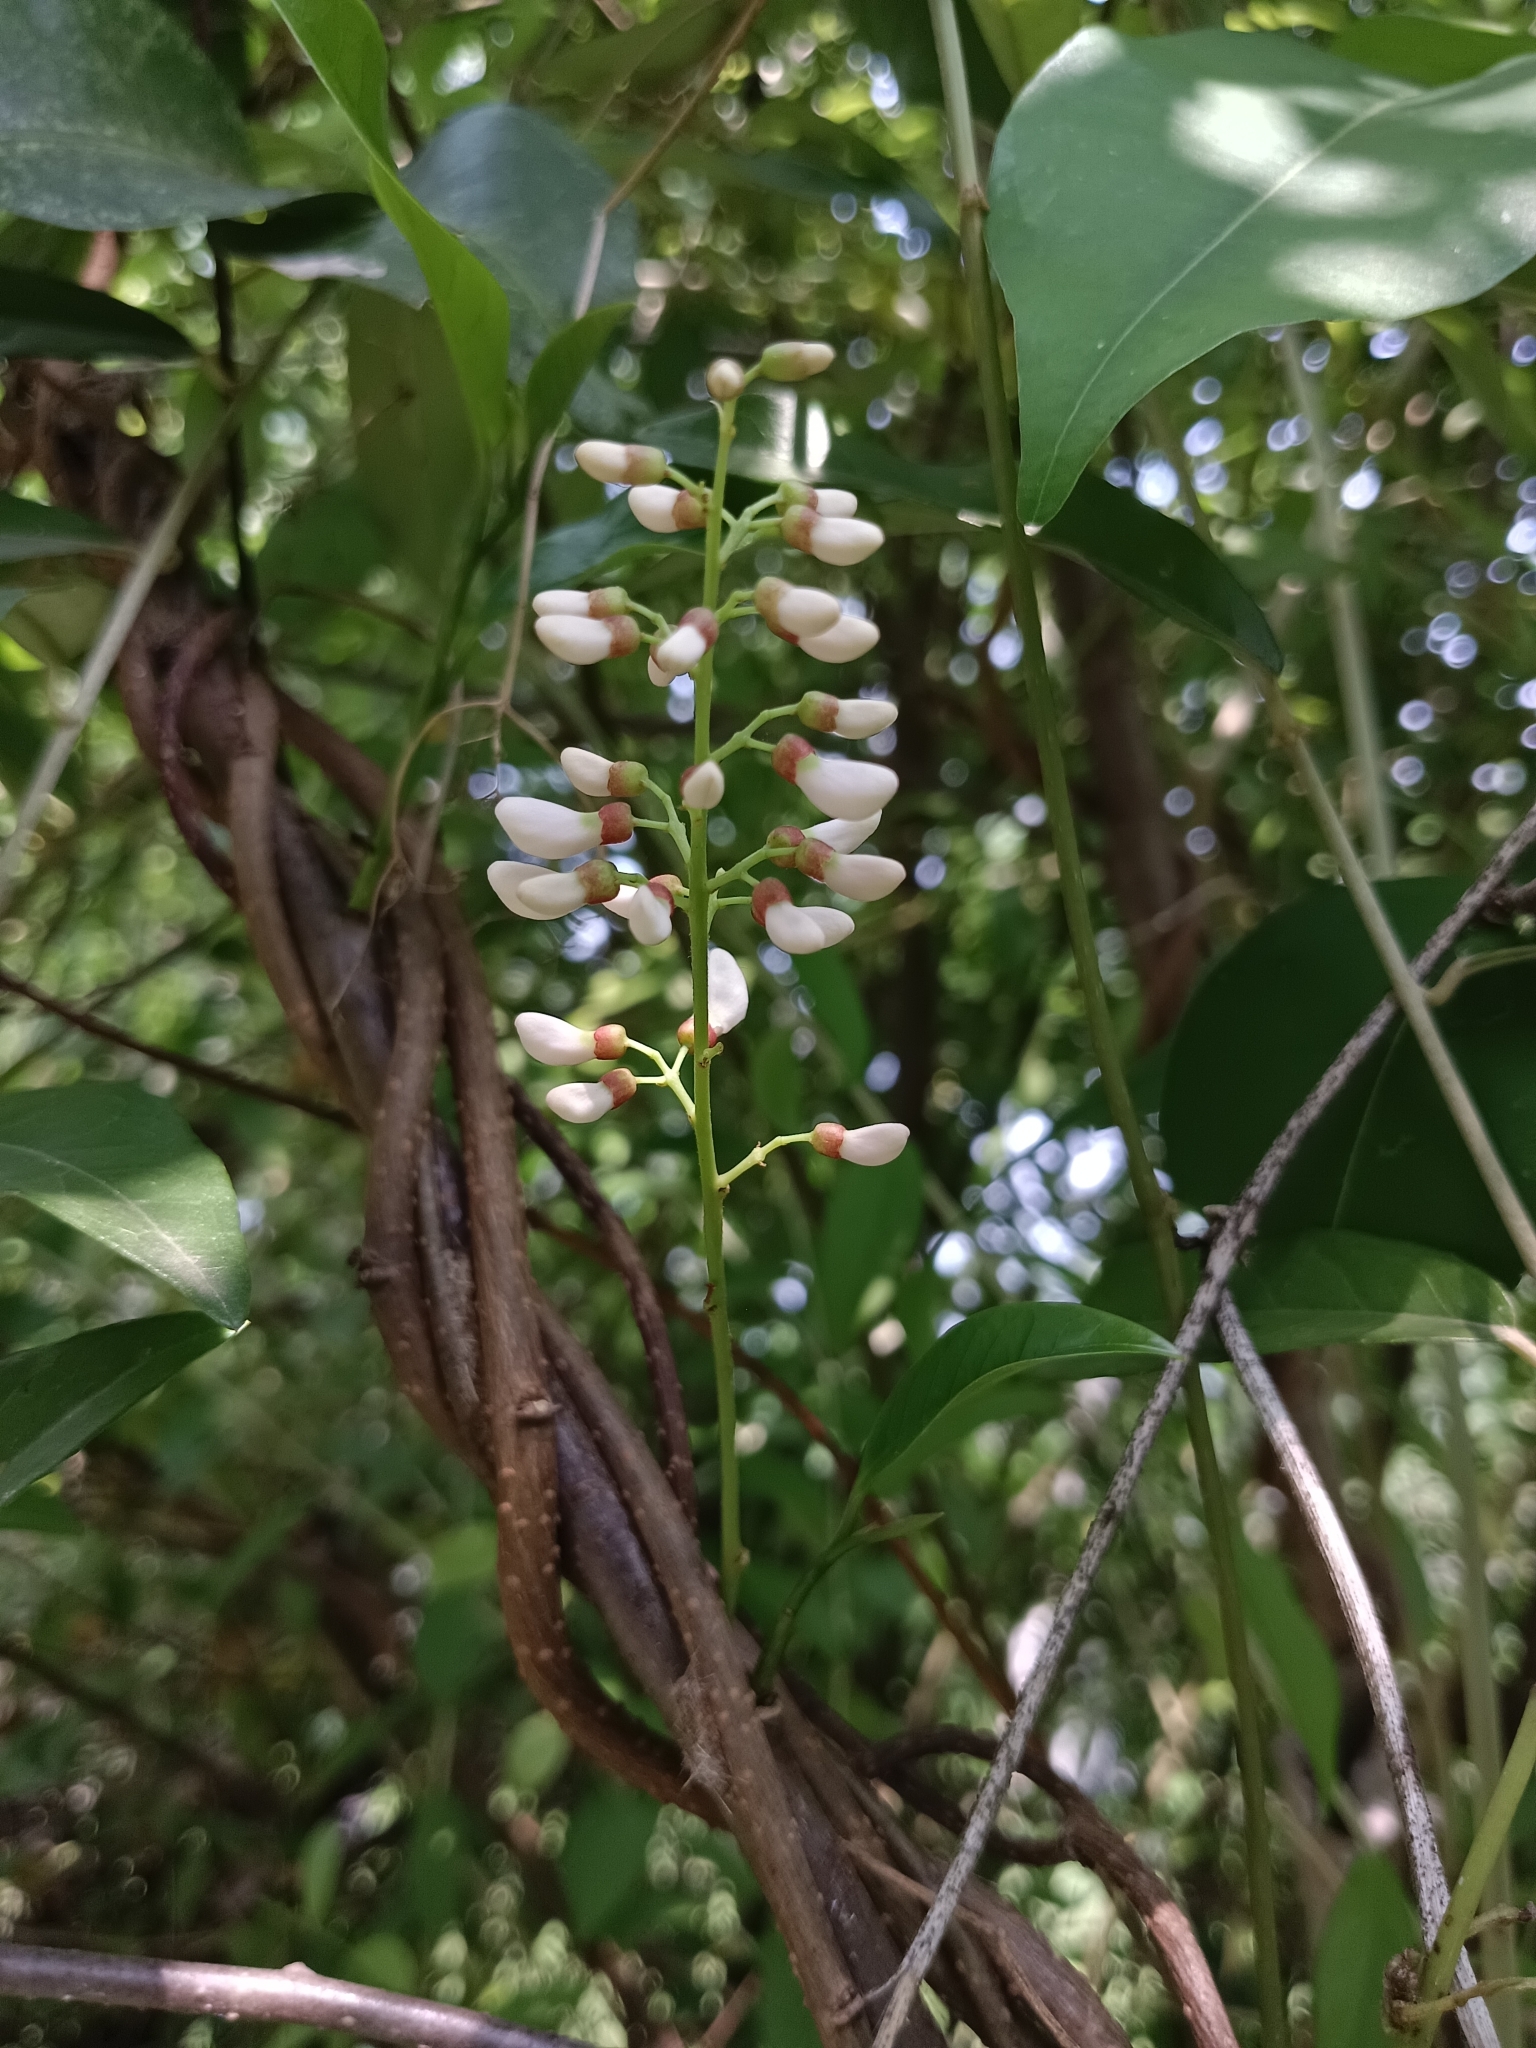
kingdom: Plantae
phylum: Tracheophyta
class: Magnoliopsida
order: Fabales
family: Fabaceae
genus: Derris
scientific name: Derris trifoliata
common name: Three-leaf derris
